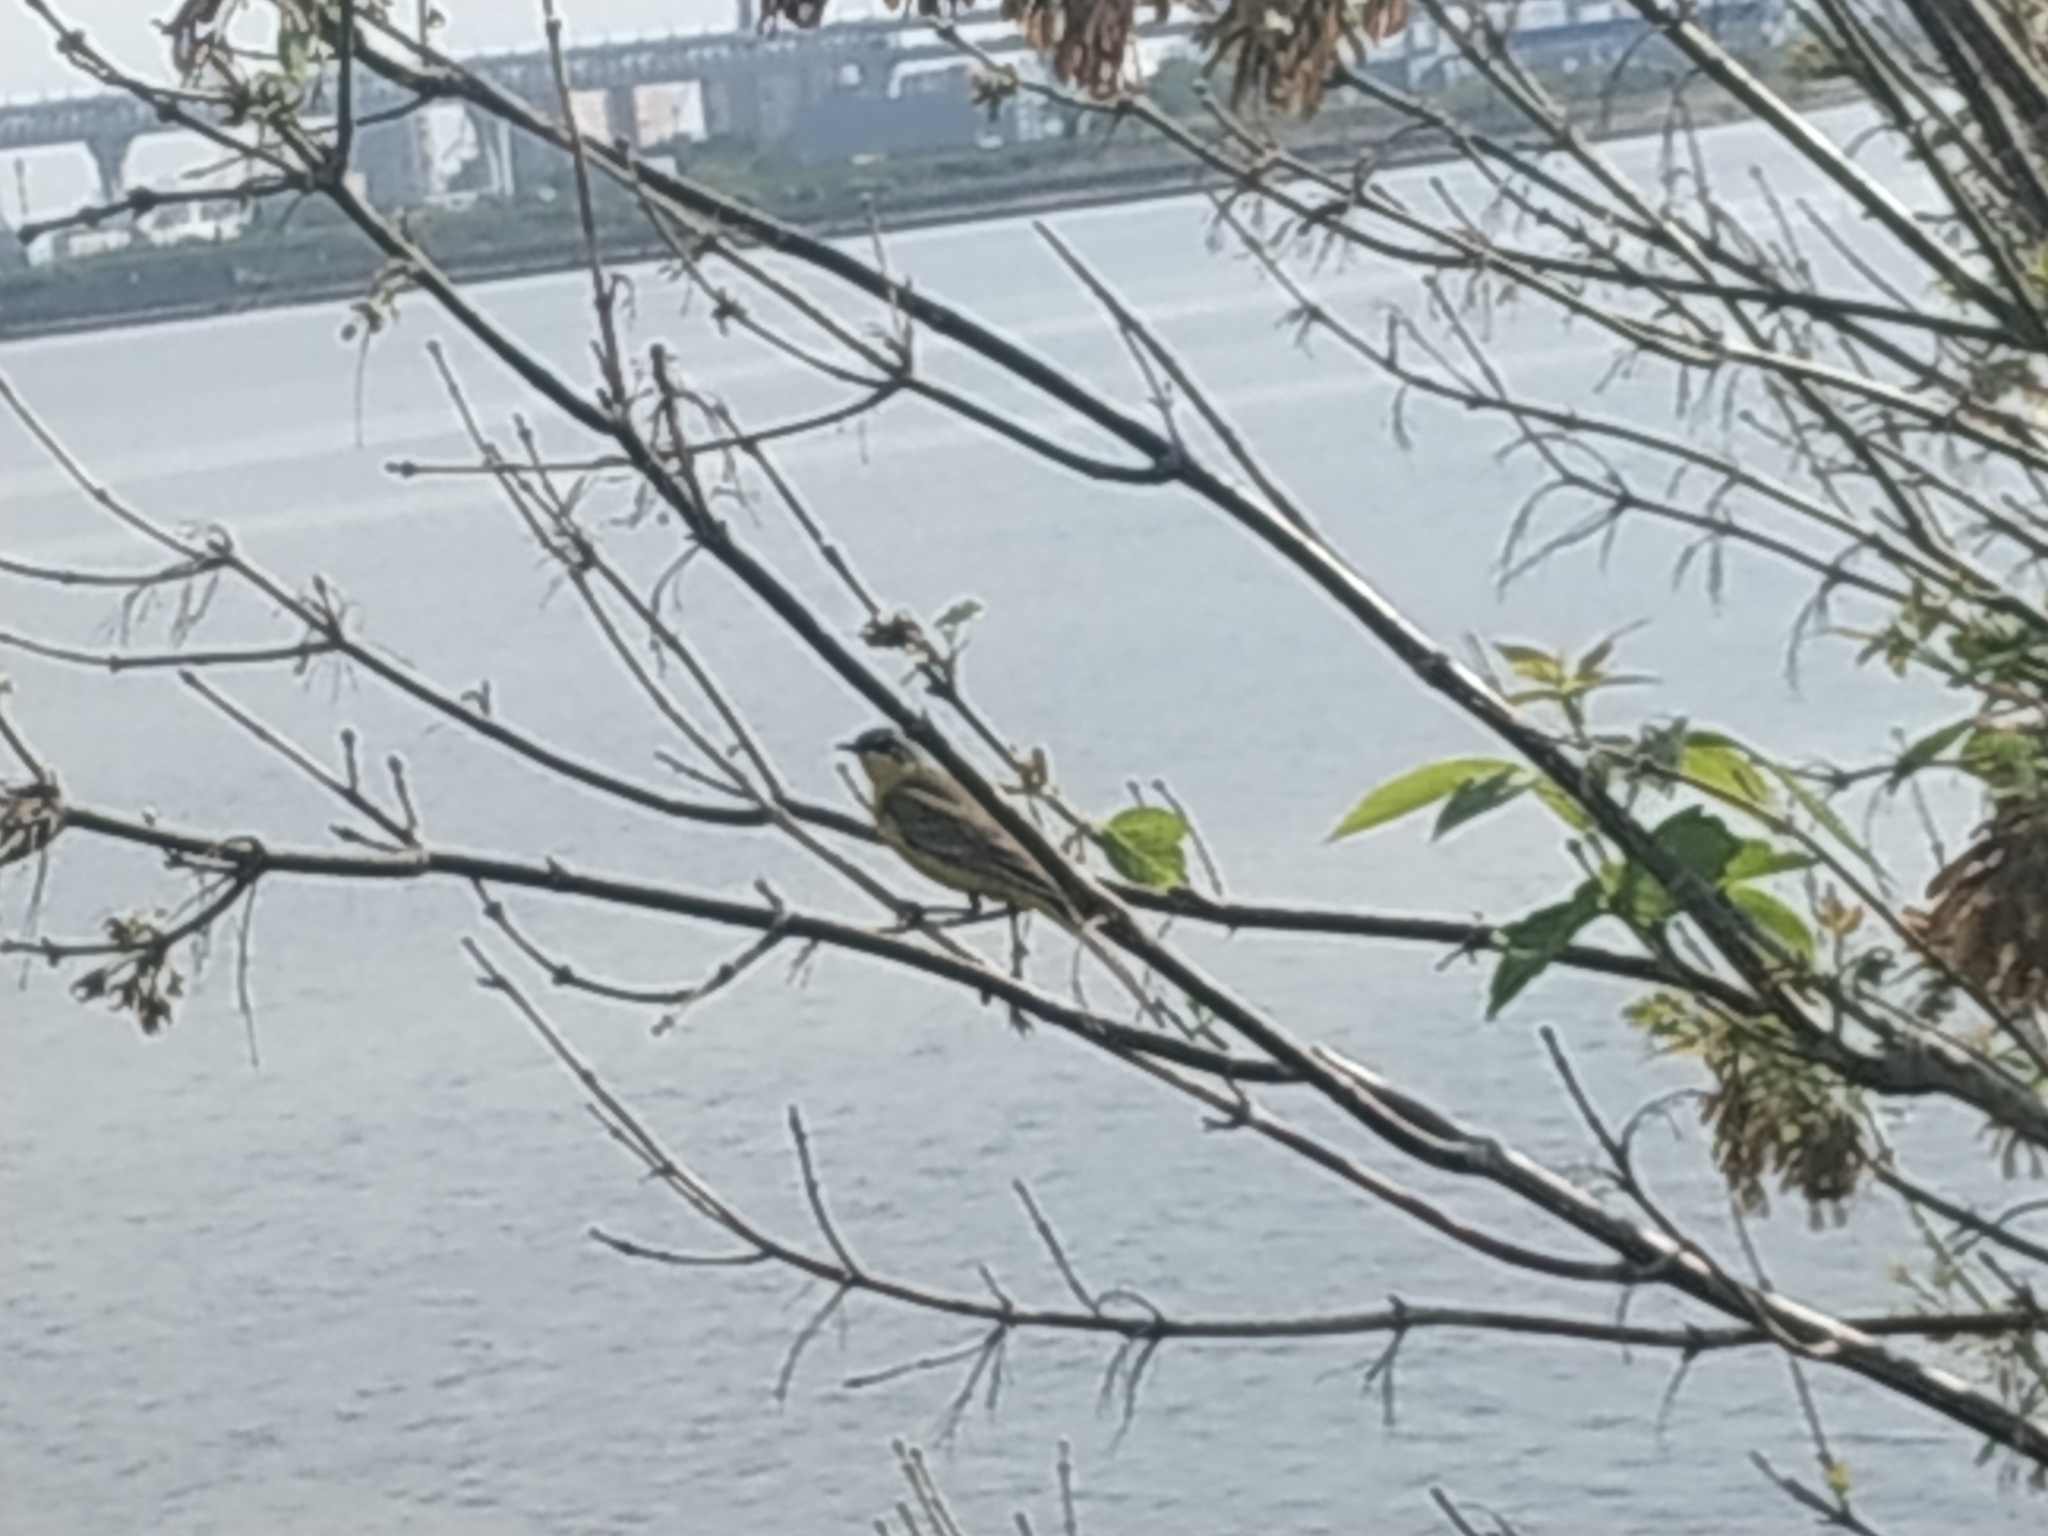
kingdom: Animalia
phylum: Chordata
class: Aves
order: Passeriformes
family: Motacillidae
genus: Motacilla
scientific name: Motacilla flava
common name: Western yellow wagtail
